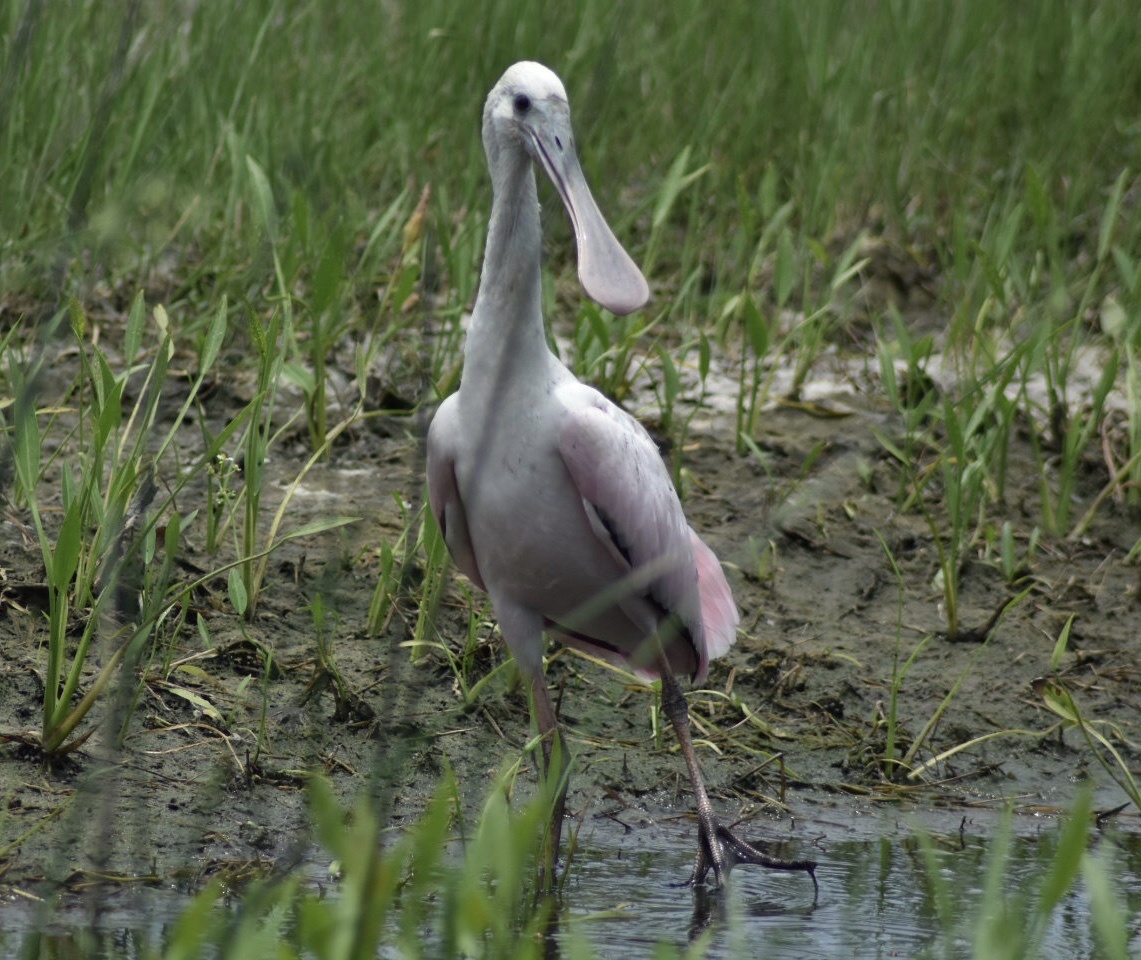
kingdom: Animalia
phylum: Chordata
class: Aves
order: Pelecaniformes
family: Threskiornithidae
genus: Platalea
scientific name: Platalea ajaja
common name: Roseate spoonbill
